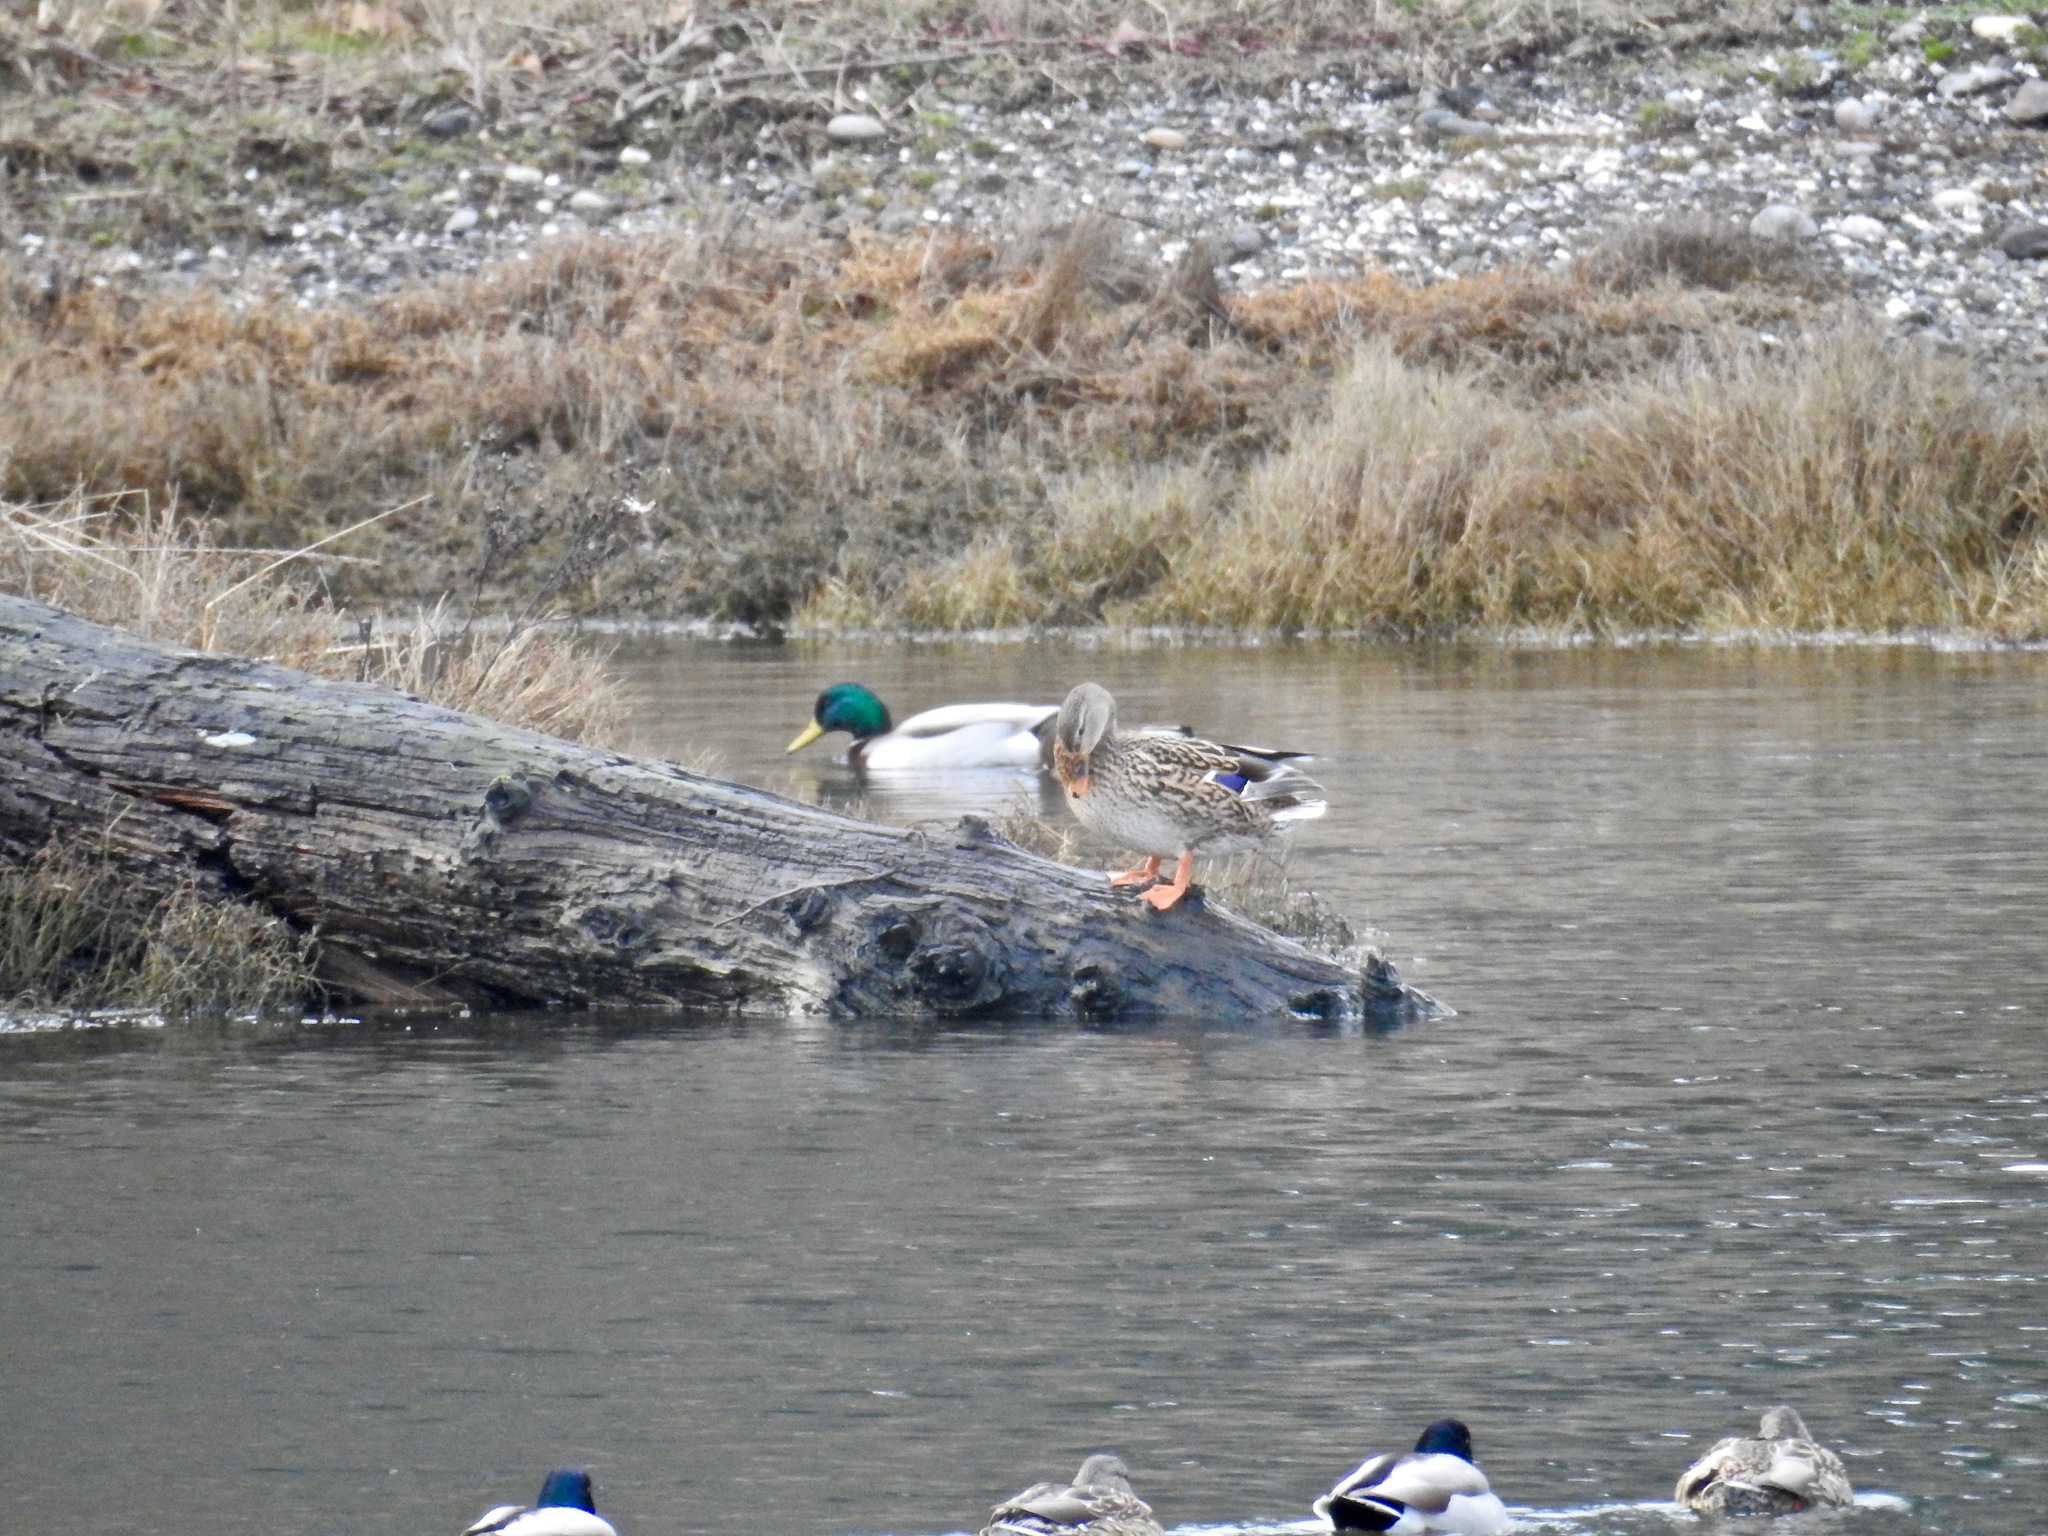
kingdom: Animalia
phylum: Chordata
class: Aves
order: Anseriformes
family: Anatidae
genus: Anas
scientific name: Anas platyrhynchos
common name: Mallard
